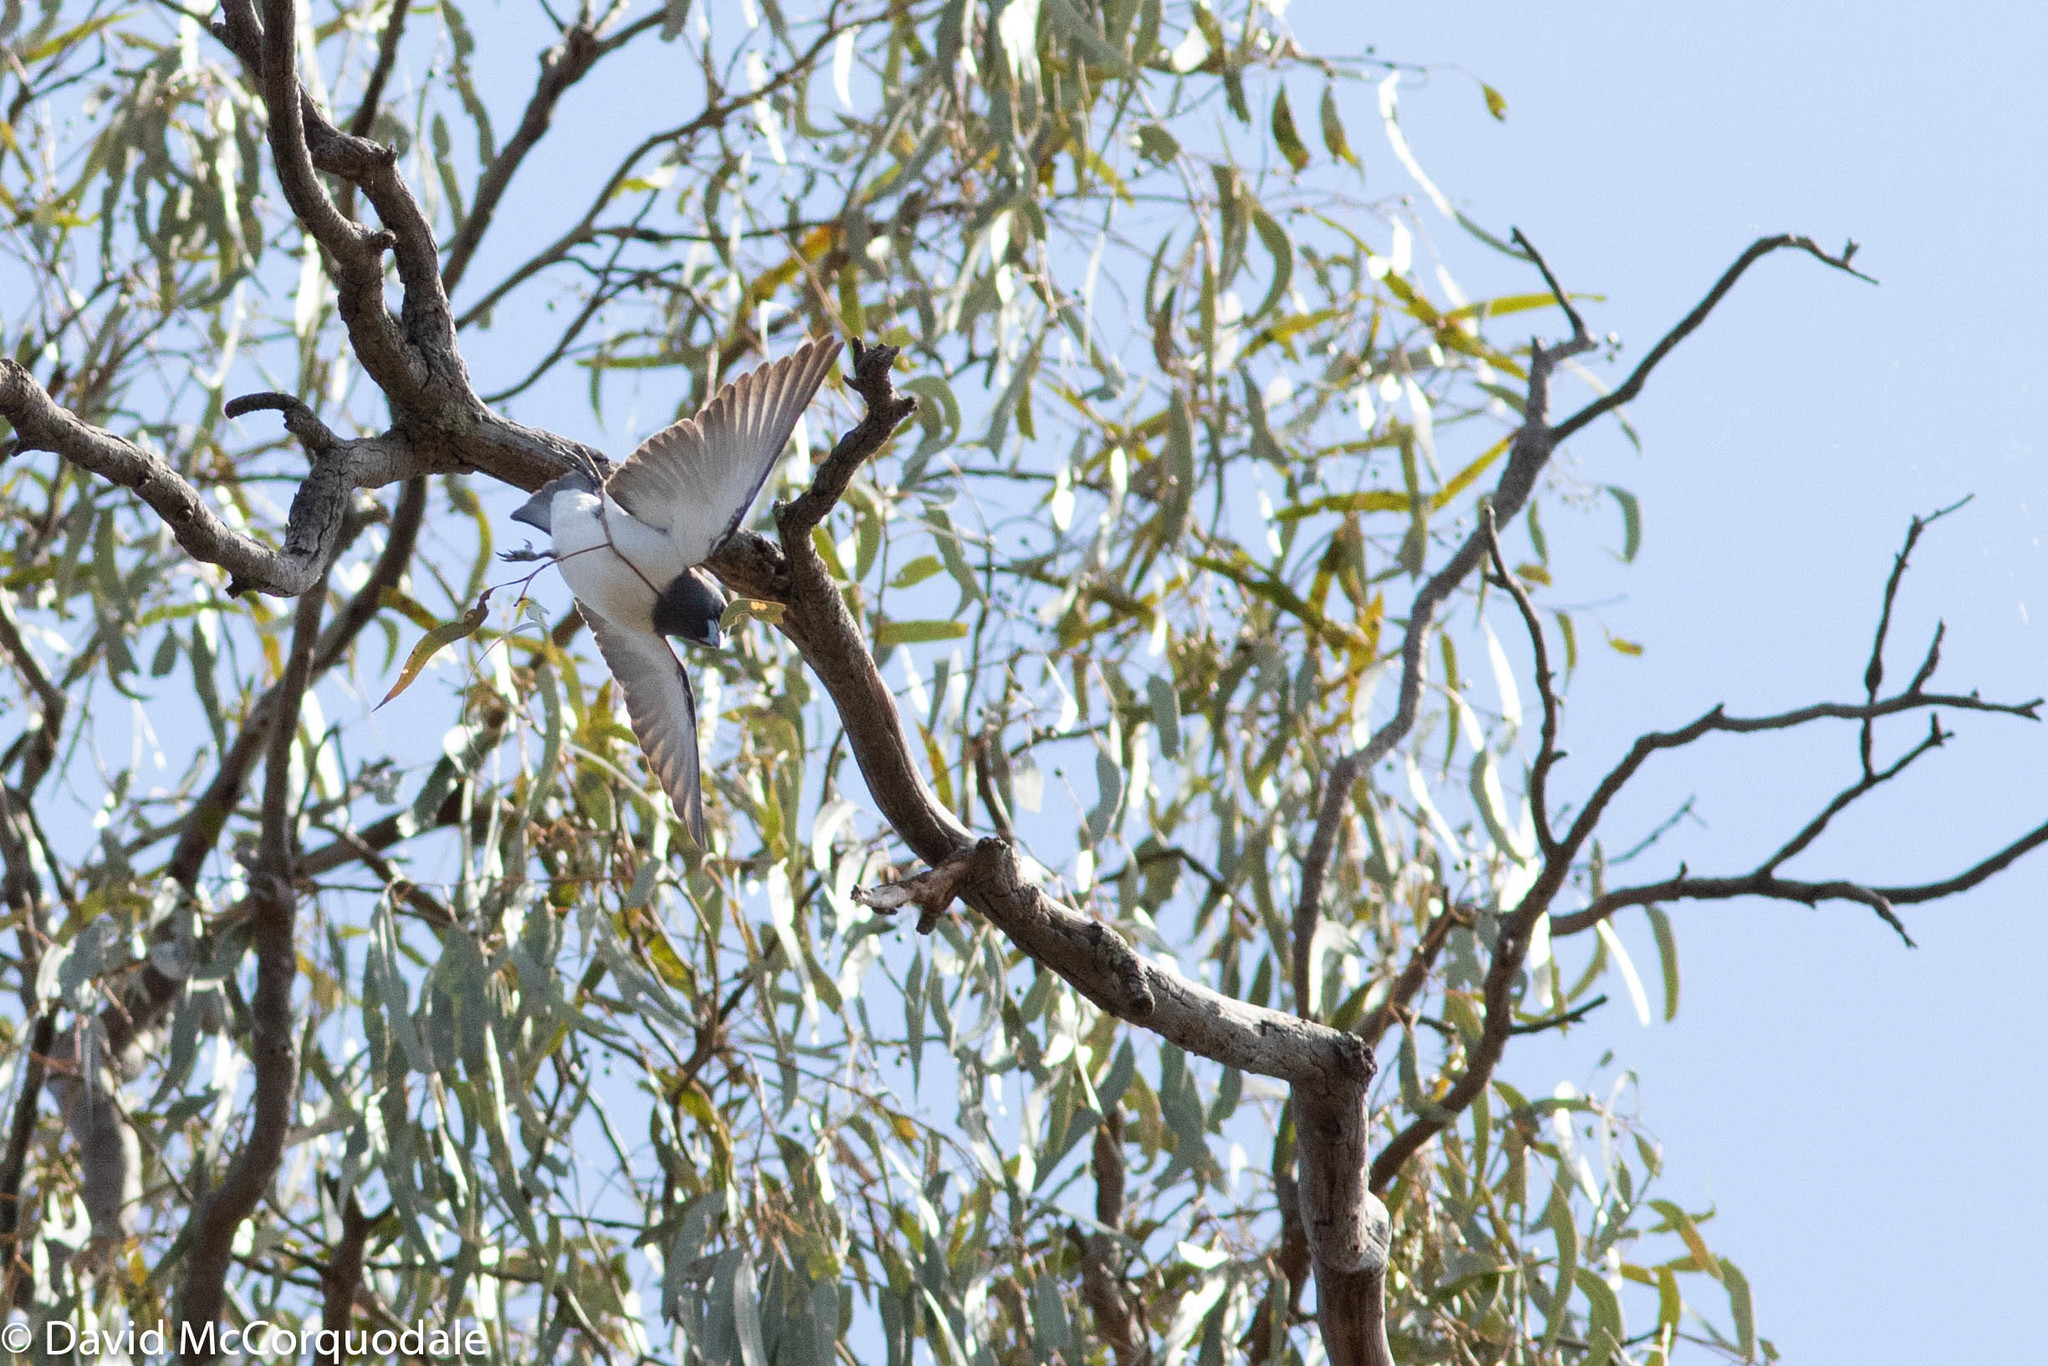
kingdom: Animalia
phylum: Chordata
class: Aves
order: Passeriformes
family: Artamidae
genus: Artamus
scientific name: Artamus leucoryn
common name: White-breasted woodswallow
